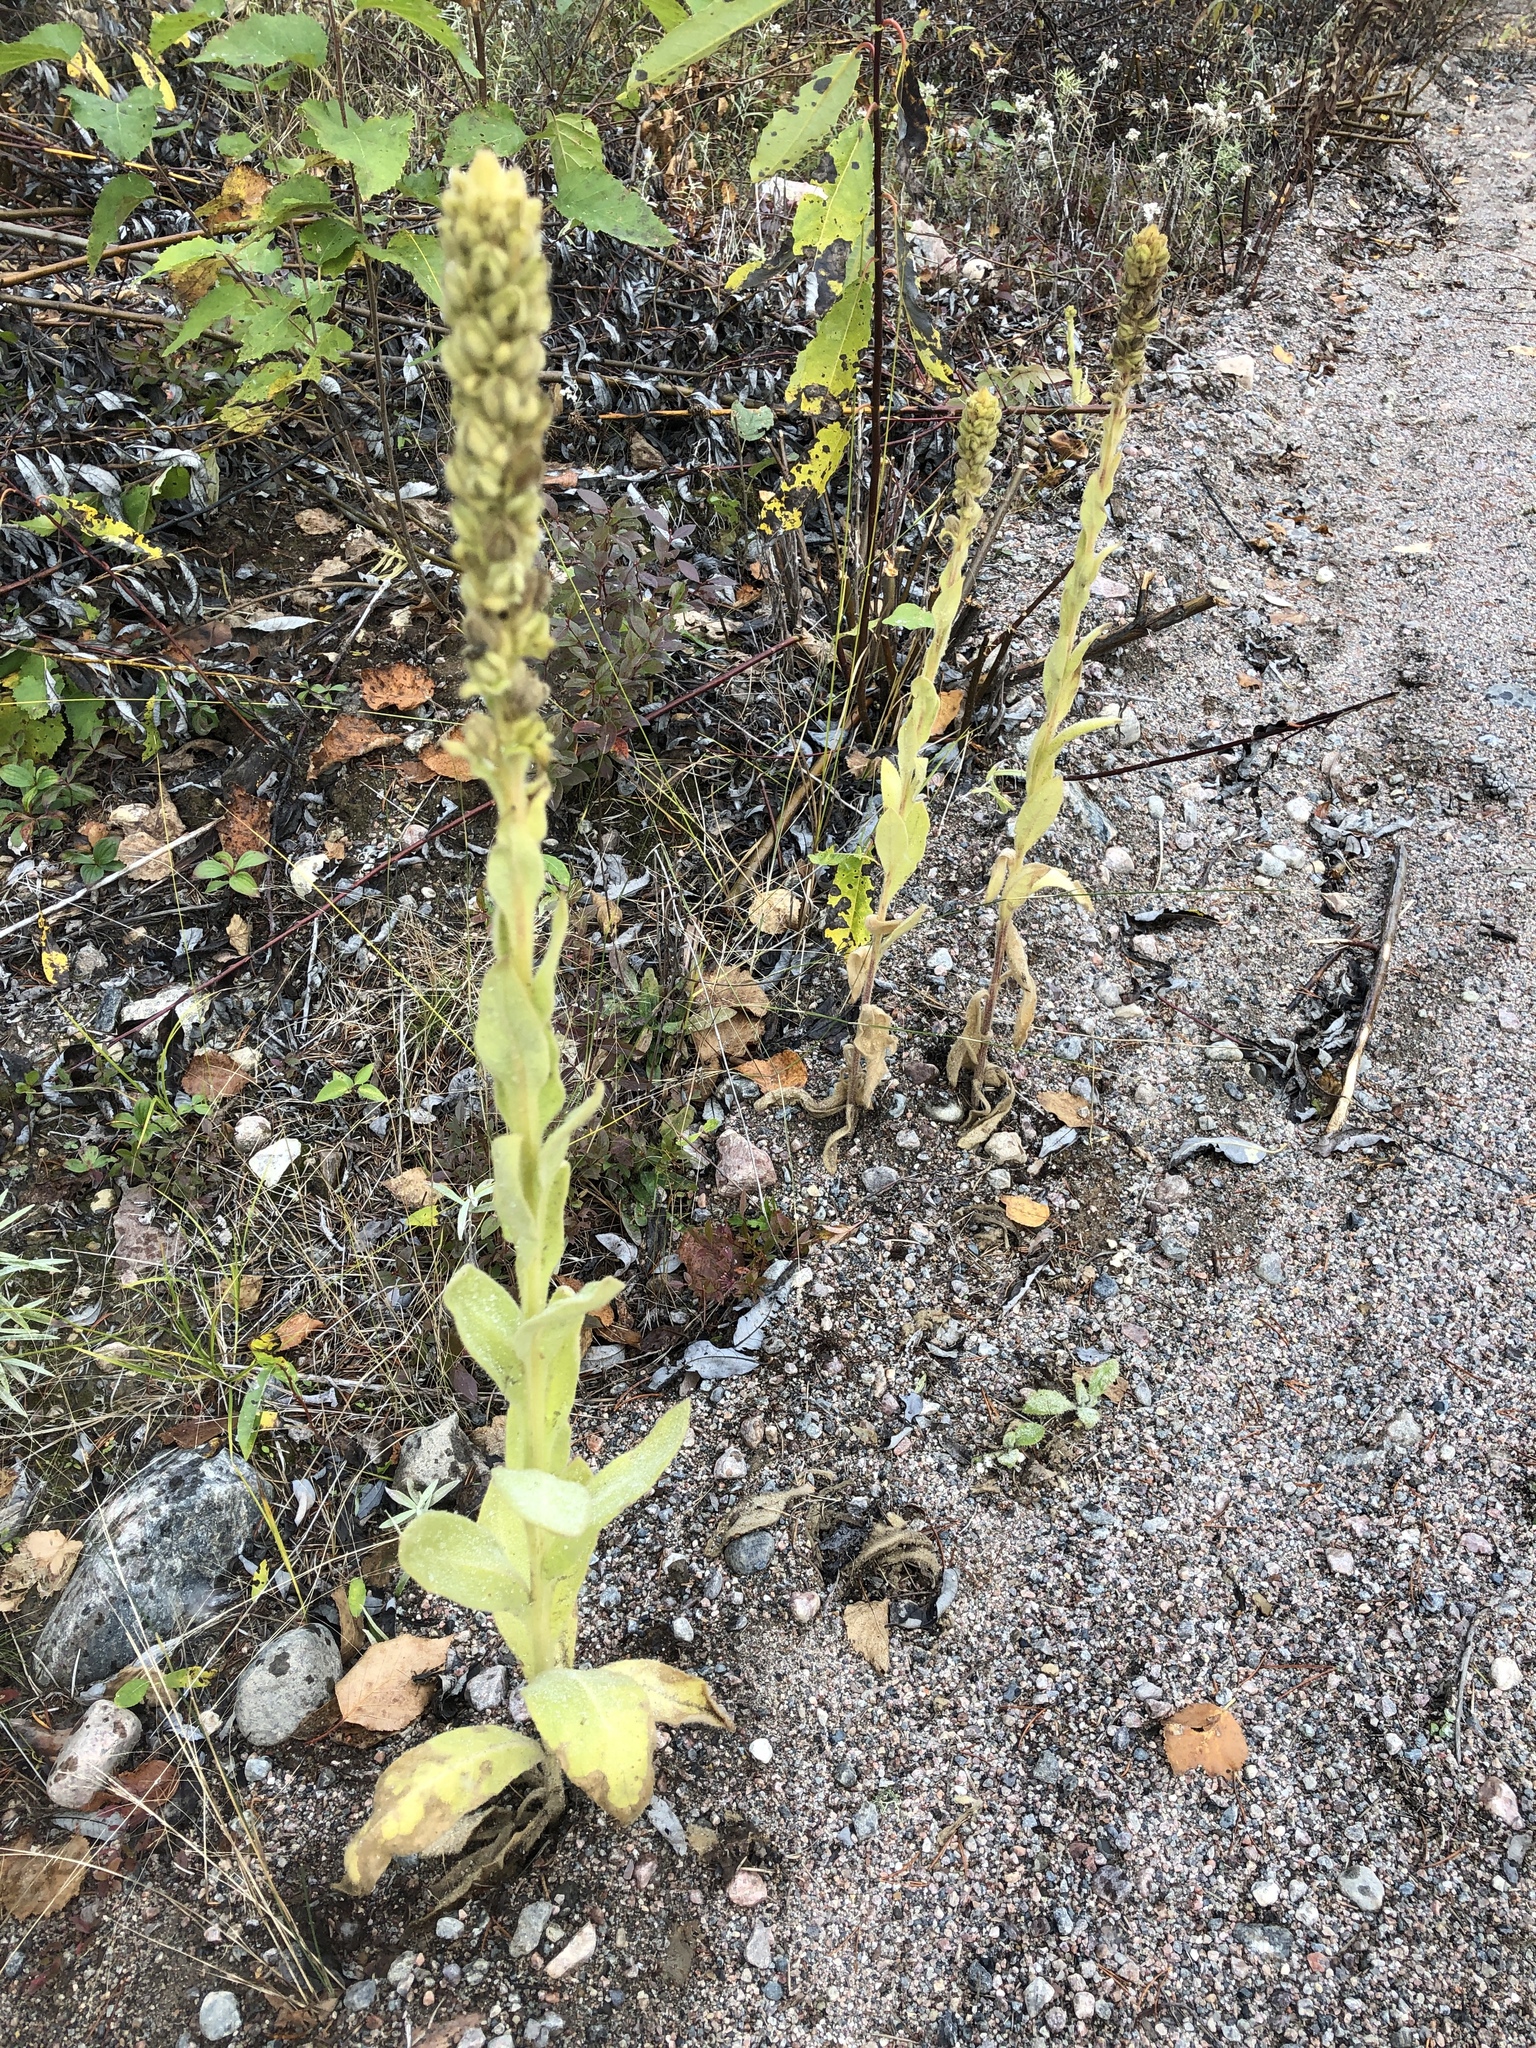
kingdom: Plantae
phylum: Tracheophyta
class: Magnoliopsida
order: Lamiales
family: Scrophulariaceae
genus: Verbascum
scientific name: Verbascum thapsus
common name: Common mullein
